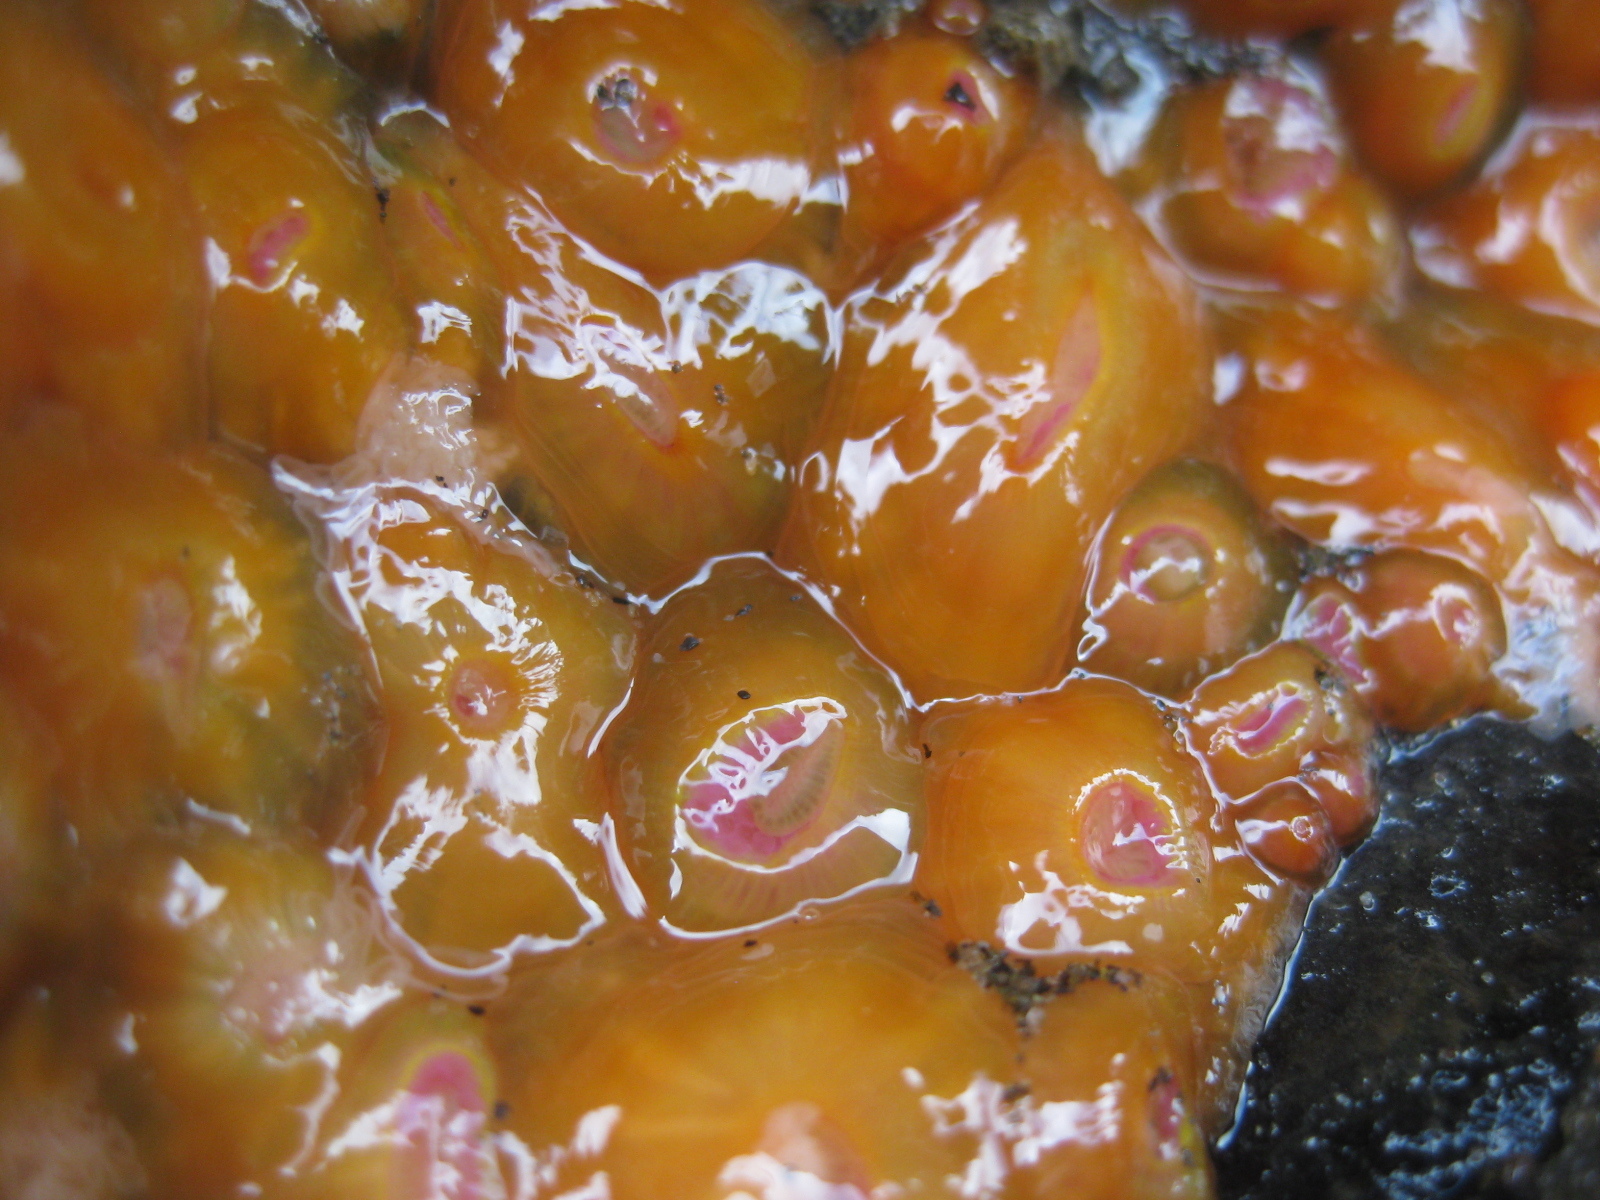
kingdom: Animalia
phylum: Cnidaria
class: Anthozoa
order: Corallimorpharia
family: Corallimorphidae
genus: Corynactis
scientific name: Corynactis australis
